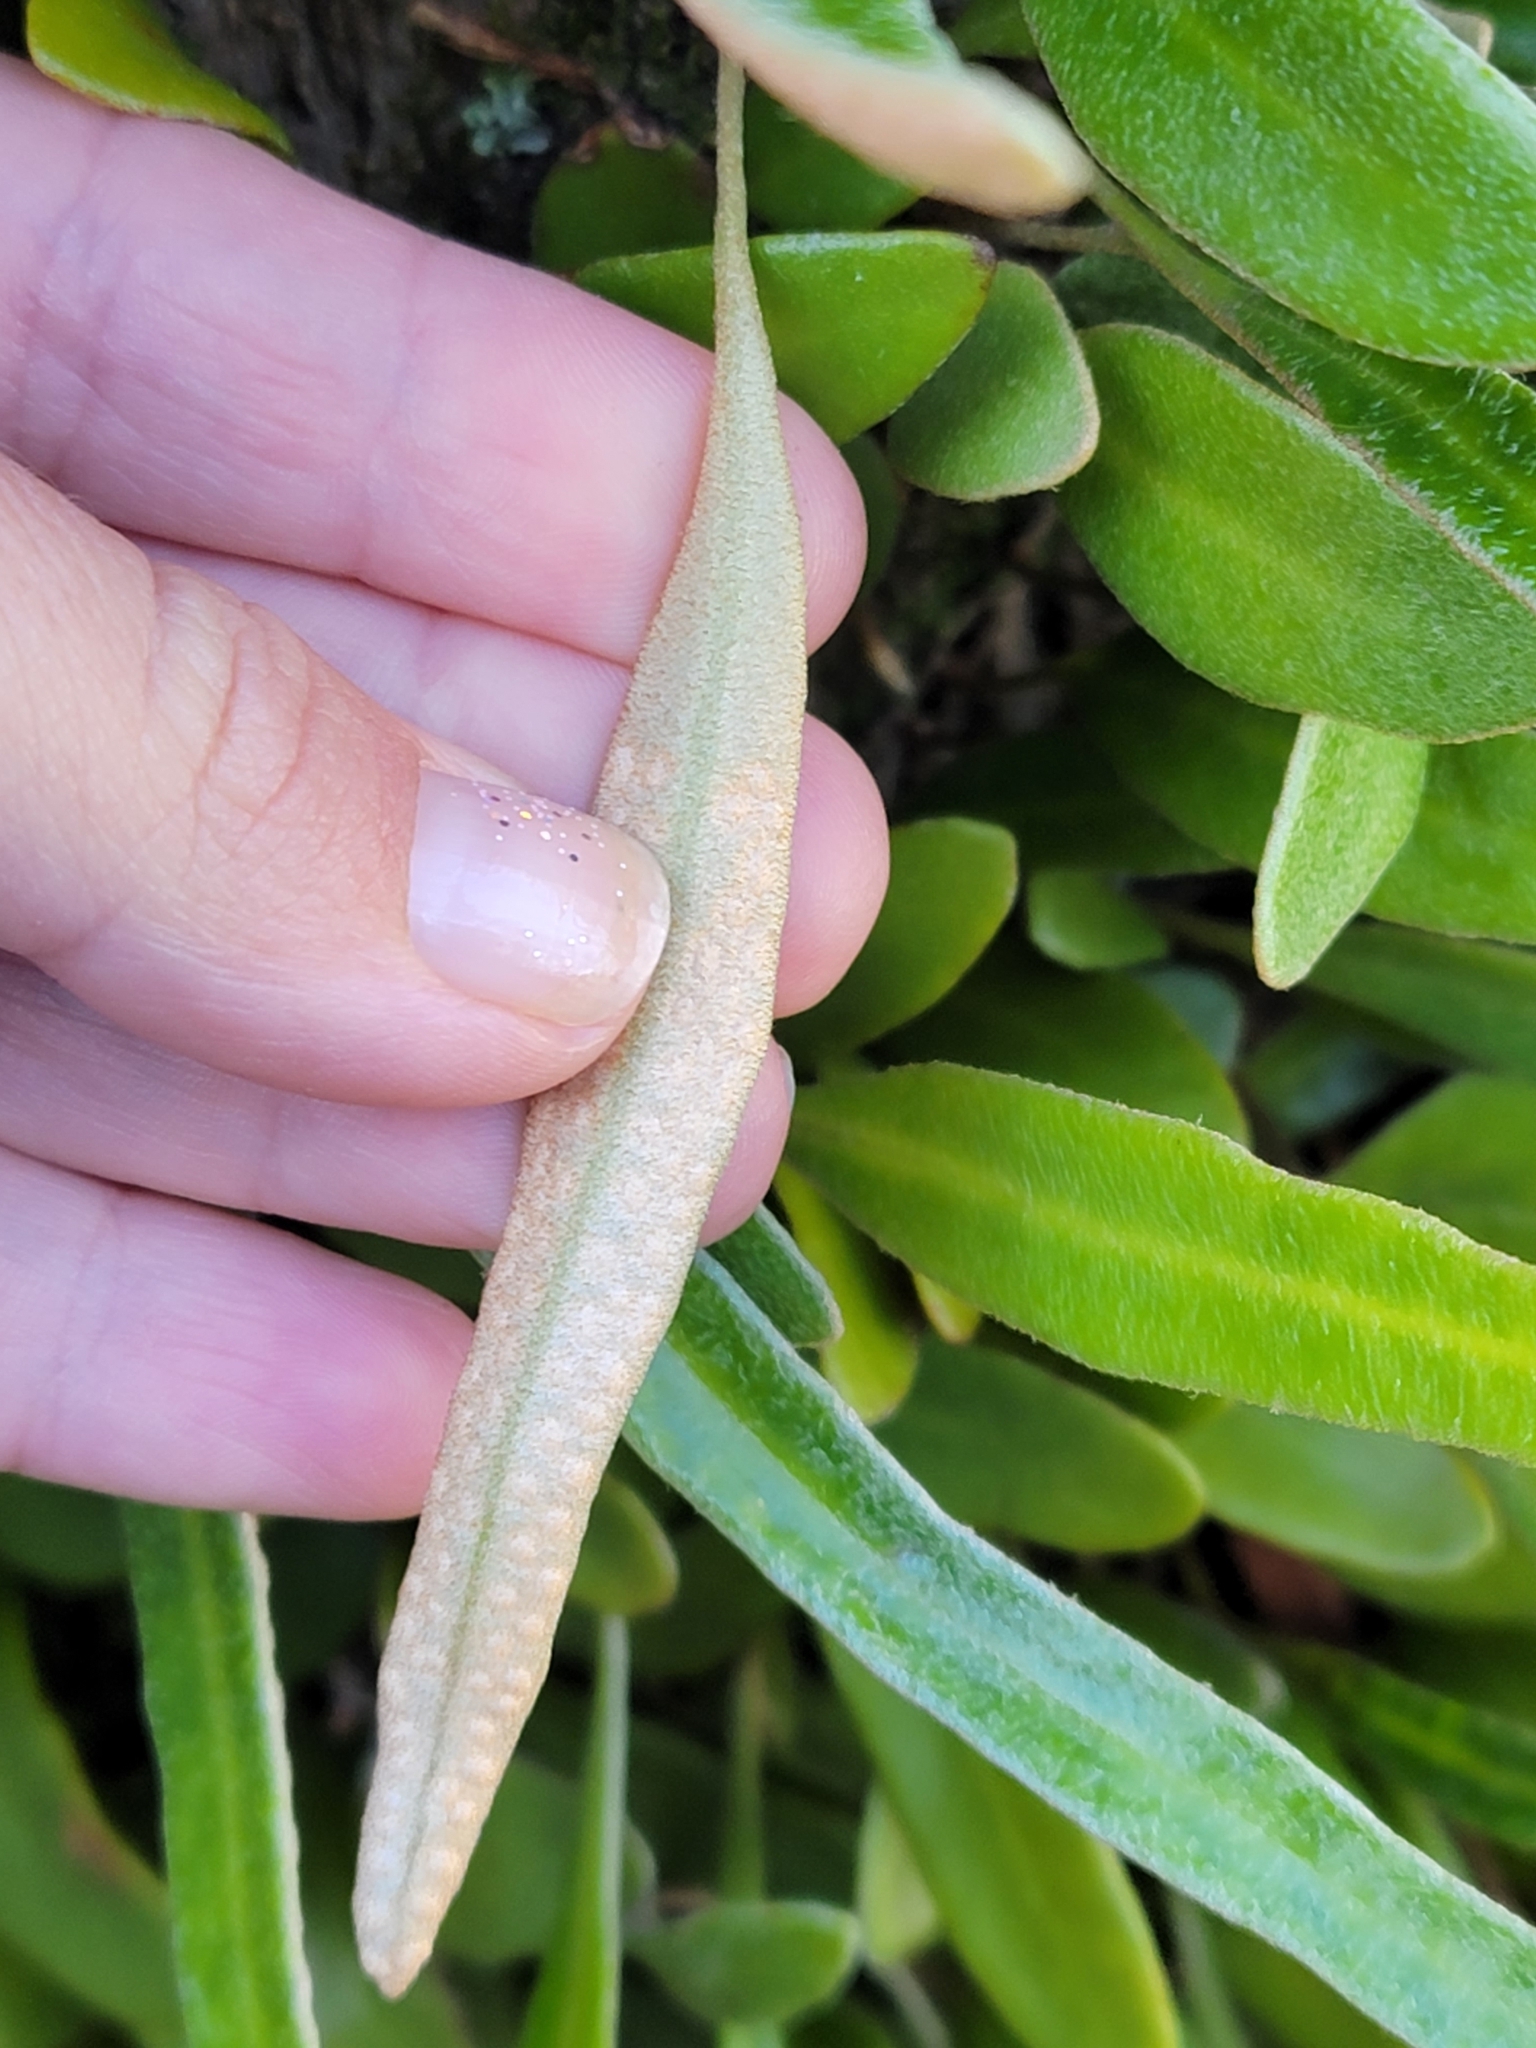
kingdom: Plantae
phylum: Tracheophyta
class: Polypodiopsida
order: Polypodiales
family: Polypodiaceae
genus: Pyrrosia
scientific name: Pyrrosia eleagnifolia
